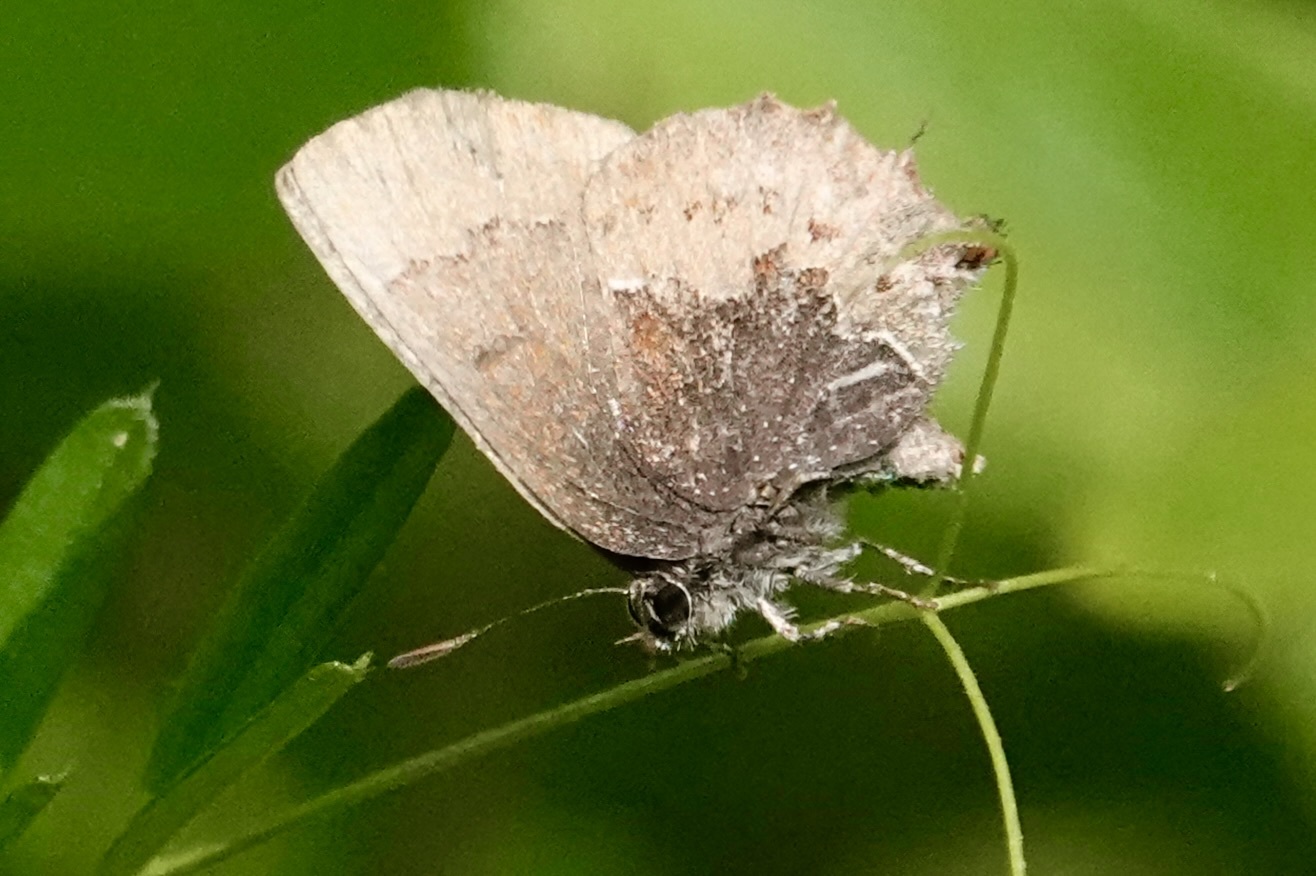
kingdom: Animalia
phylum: Arthropoda
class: Insecta
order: Lepidoptera
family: Lycaenidae
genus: Incisalia
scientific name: Incisalia henrici
